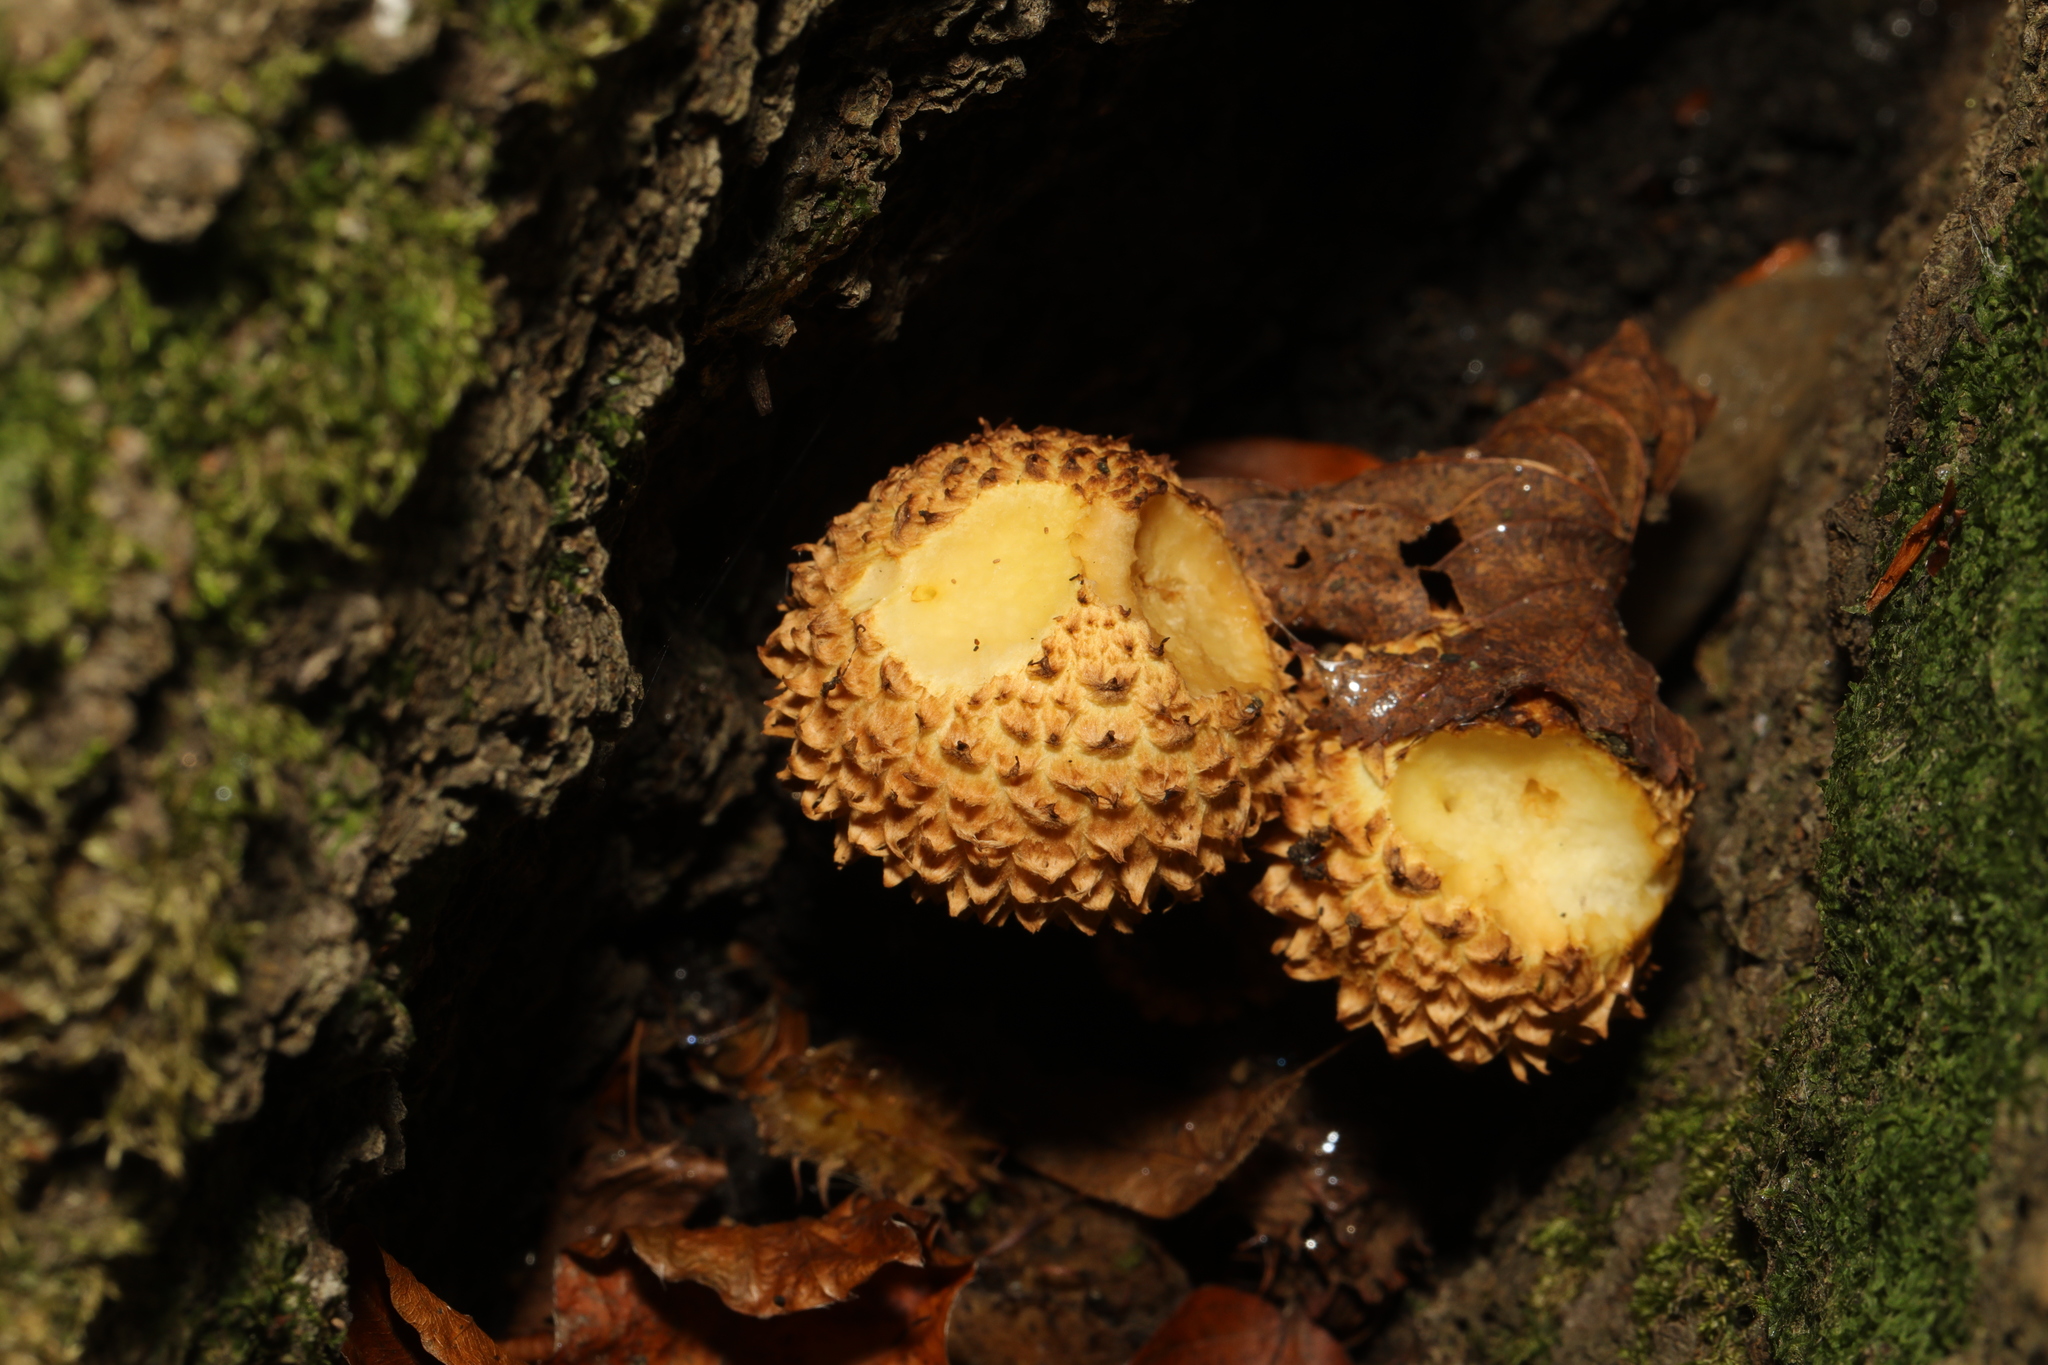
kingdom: Fungi
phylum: Basidiomycota
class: Agaricomycetes
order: Agaricales
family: Strophariaceae
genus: Pholiota
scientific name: Pholiota squarrosa
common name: Shaggy pholiota
